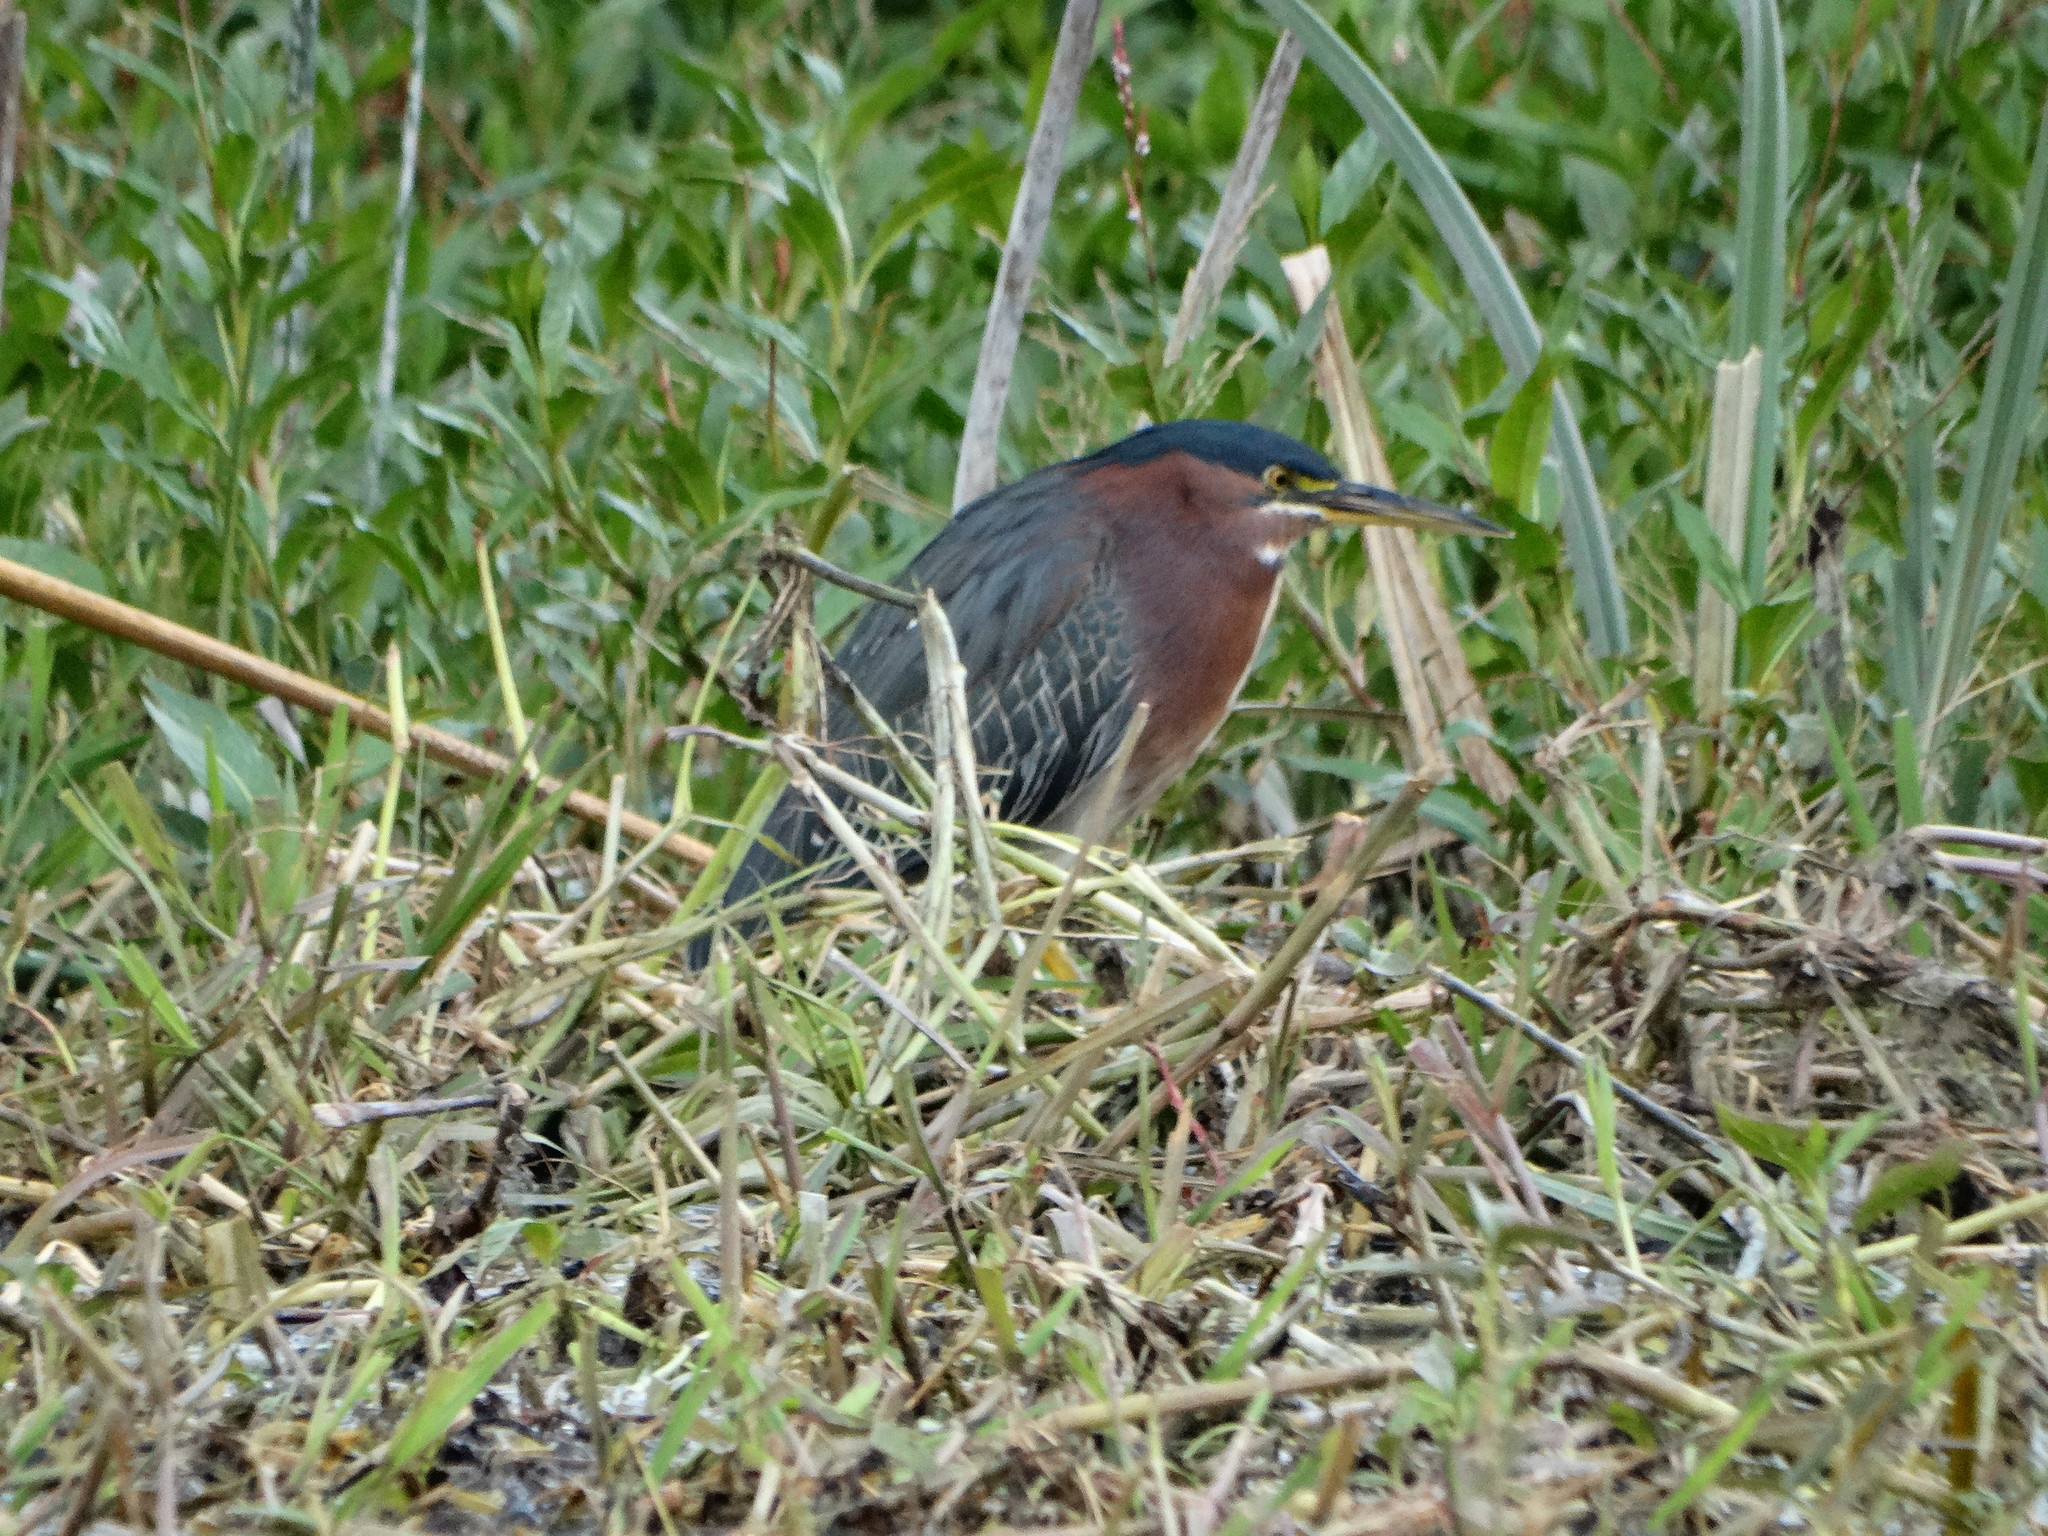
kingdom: Animalia
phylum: Chordata
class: Aves
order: Pelecaniformes
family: Ardeidae
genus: Butorides
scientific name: Butorides virescens
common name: Green heron
